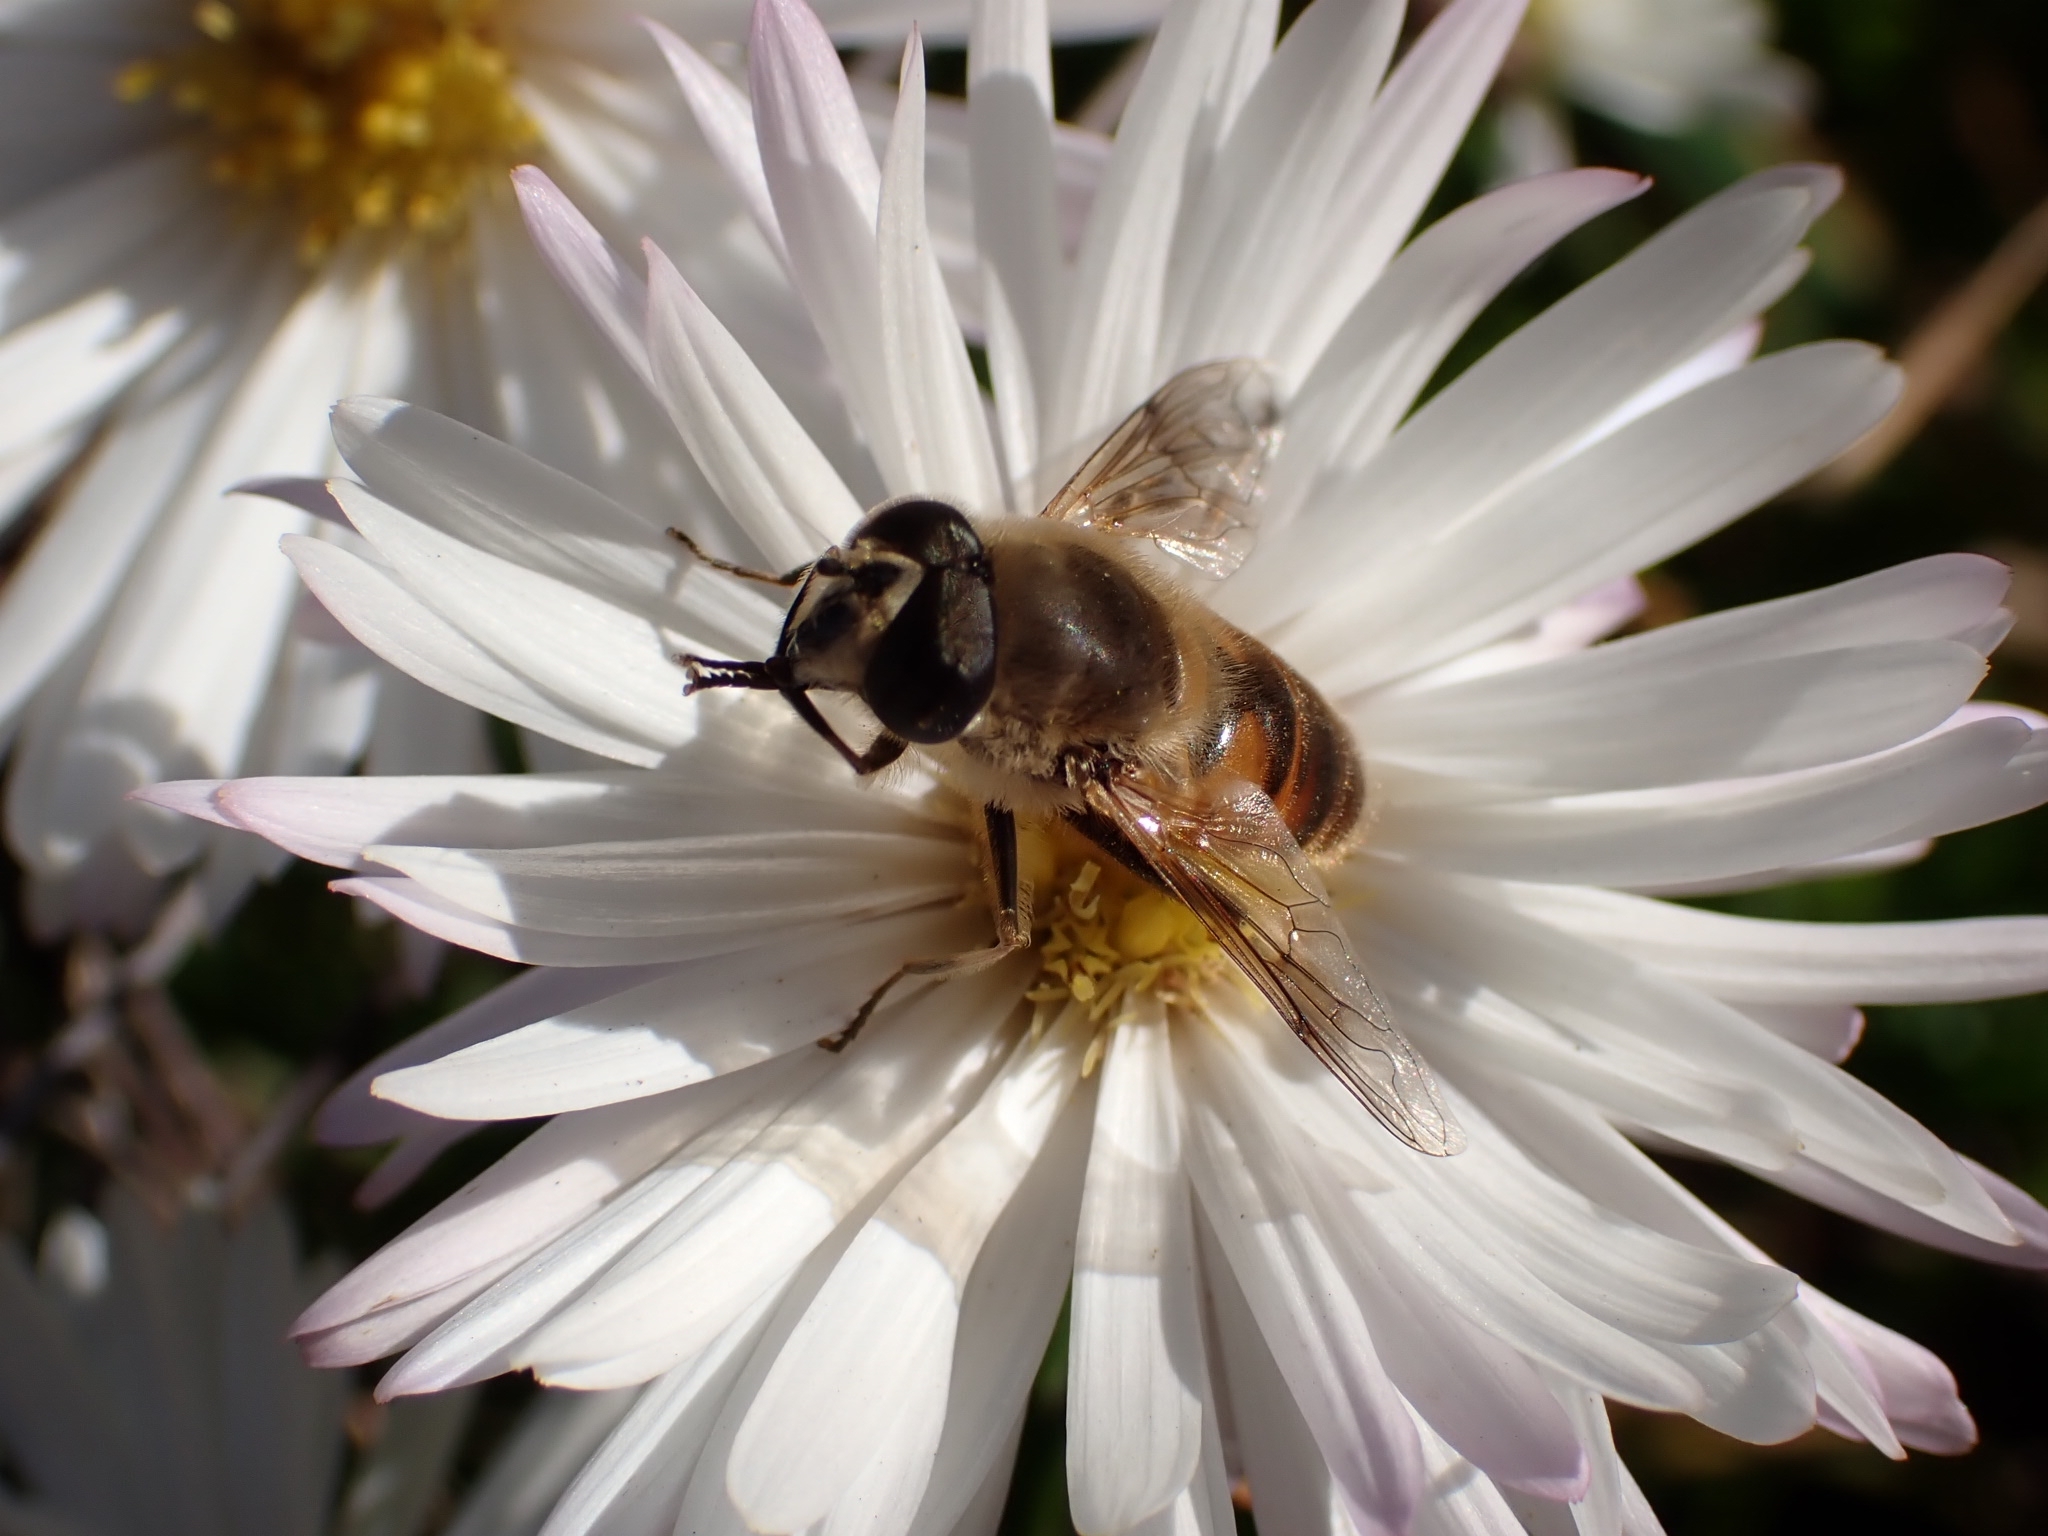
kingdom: Animalia
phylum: Arthropoda
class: Insecta
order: Diptera
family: Syrphidae
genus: Eristalis
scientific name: Eristalis tenax
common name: Drone fly
